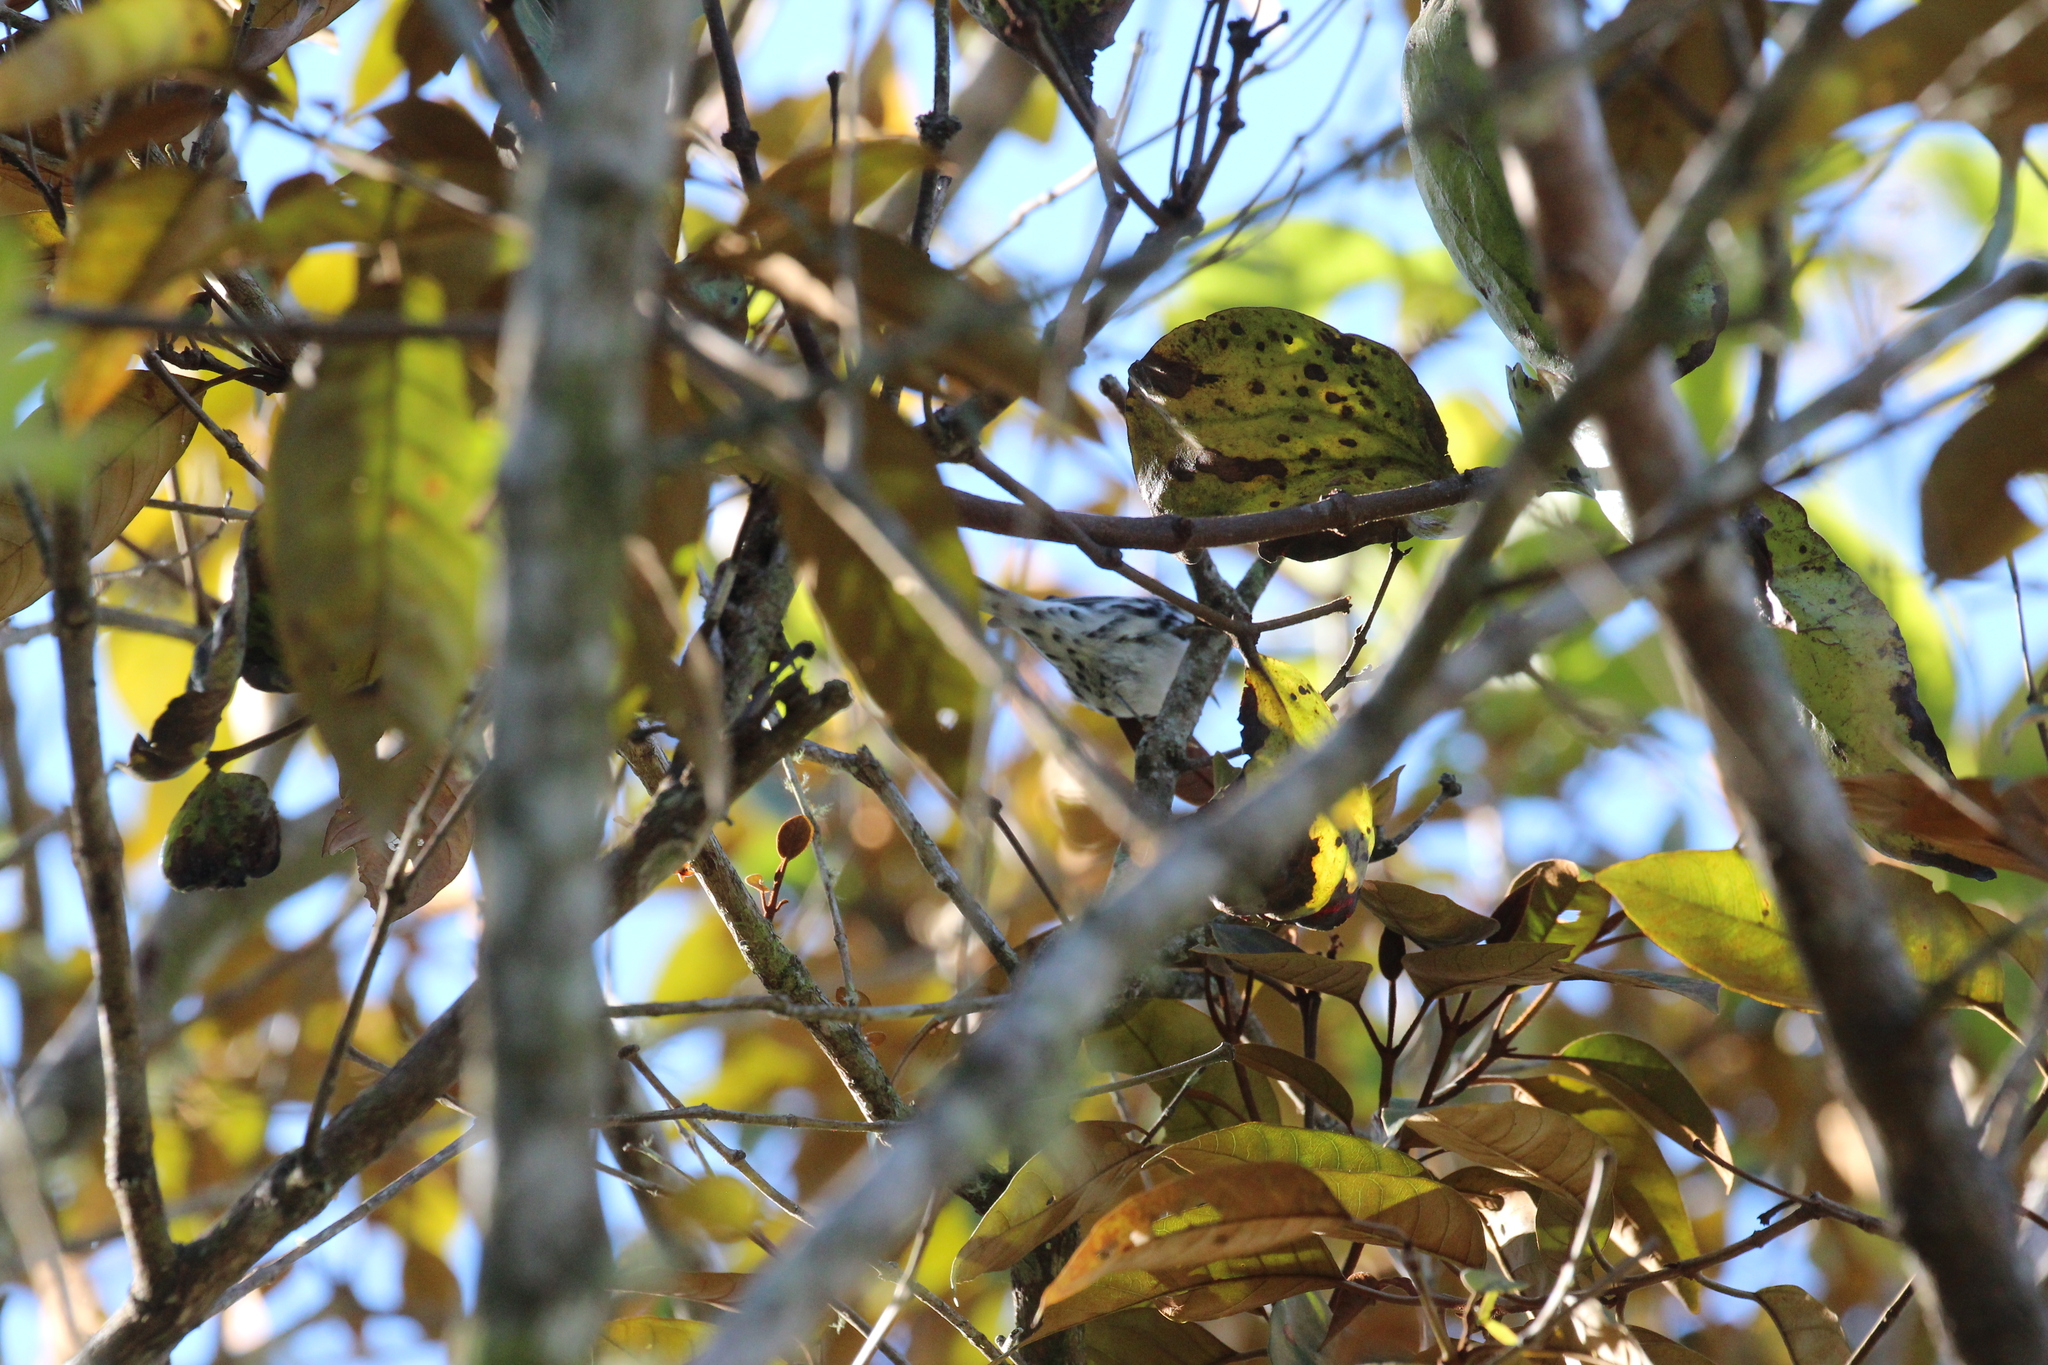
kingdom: Animalia
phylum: Chordata
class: Aves
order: Passeriformes
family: Parulidae
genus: Mniotilta
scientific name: Mniotilta varia
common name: Black-and-white warbler
